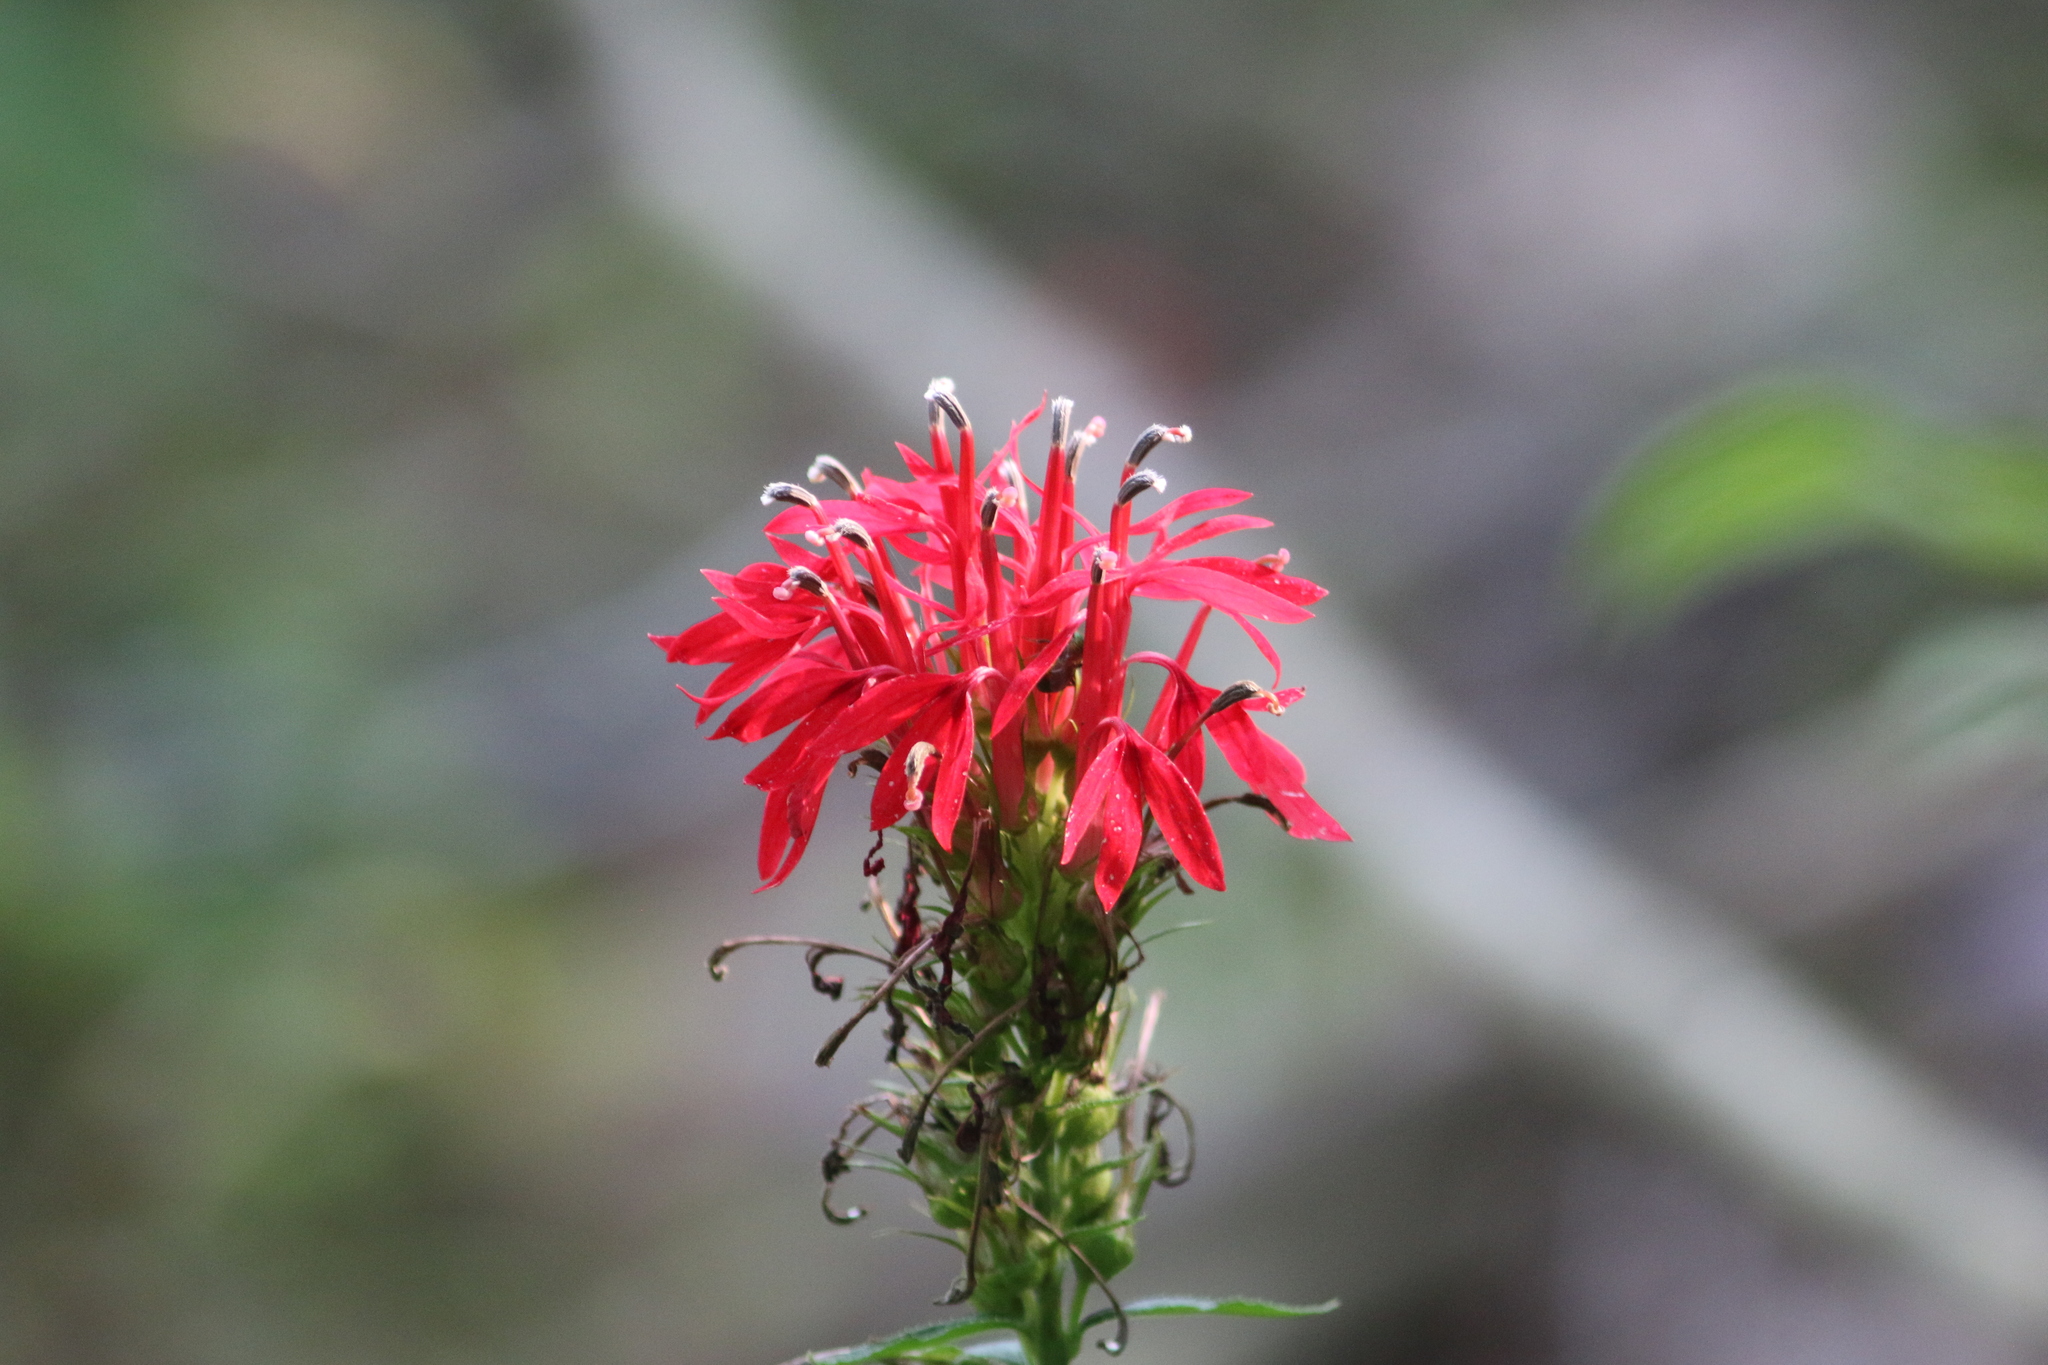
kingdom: Plantae
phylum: Tracheophyta
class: Magnoliopsida
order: Asterales
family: Campanulaceae
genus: Lobelia
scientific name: Lobelia cardinalis
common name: Cardinal flower
